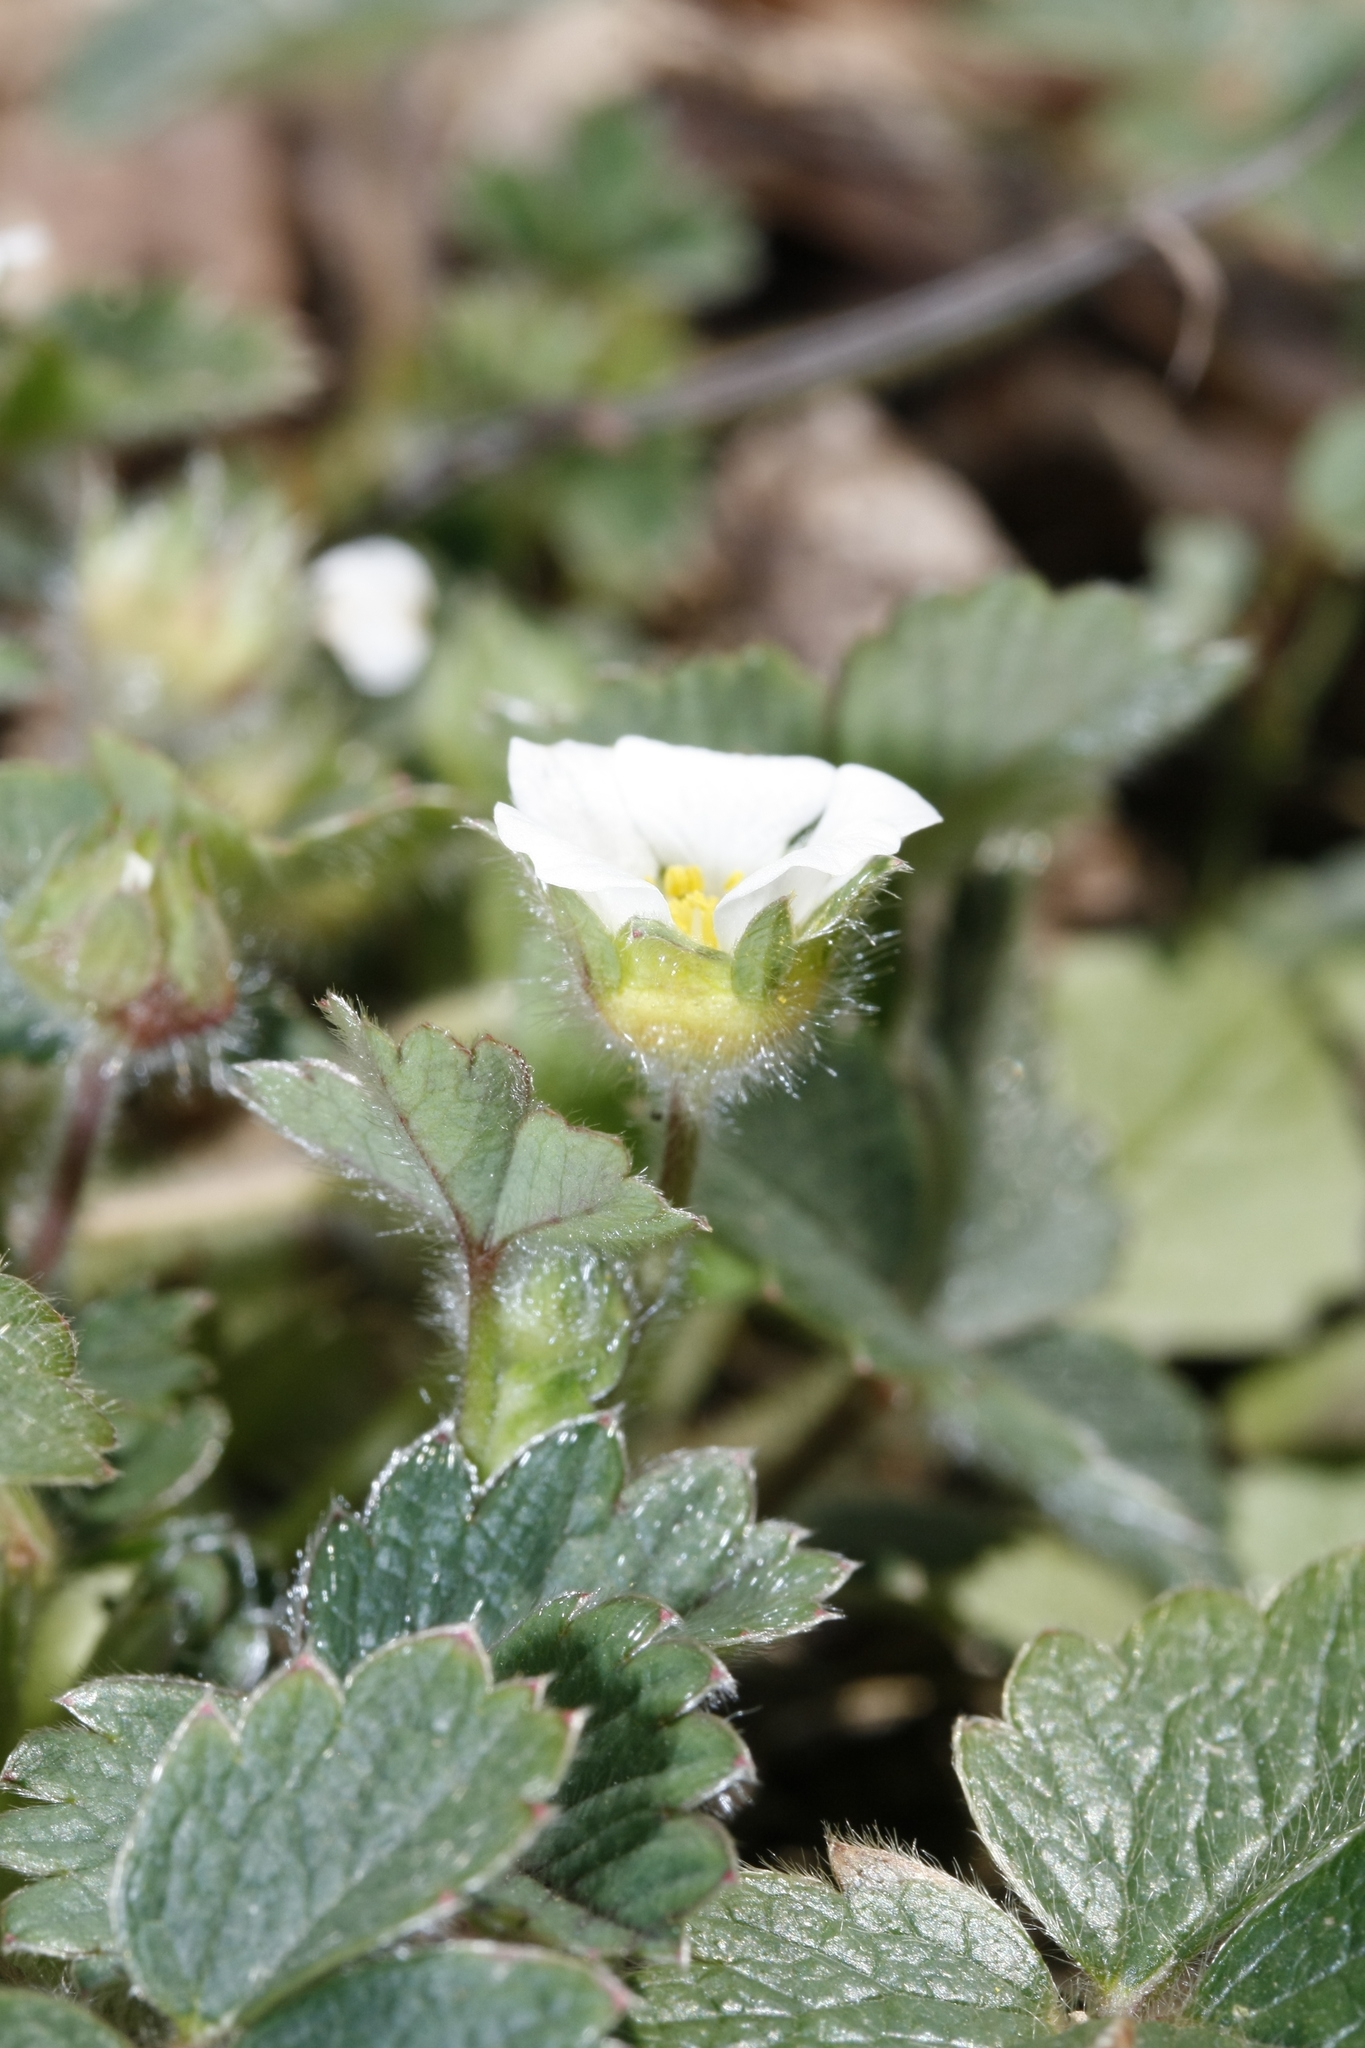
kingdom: Plantae
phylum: Tracheophyta
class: Magnoliopsida
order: Rosales
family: Rosaceae
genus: Potentilla
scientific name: Potentilla sterilis
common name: Barren strawberry
